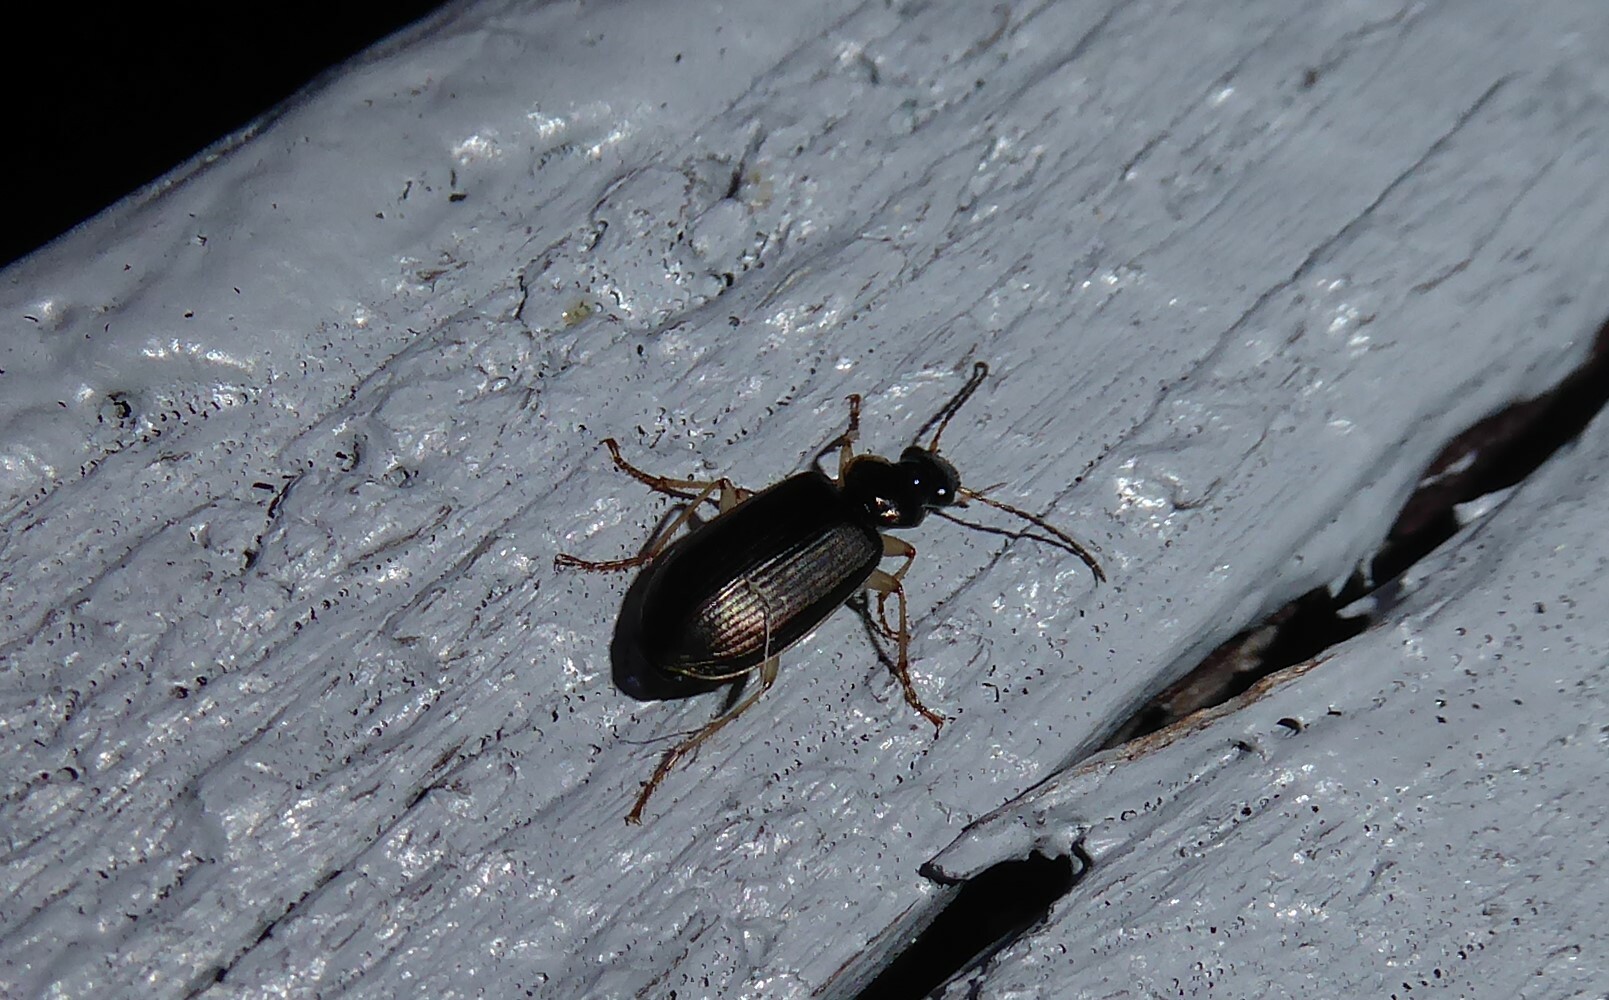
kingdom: Animalia
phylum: Arthropoda
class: Insecta
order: Coleoptera
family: Carabidae
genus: Notagonum
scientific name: Notagonum submetallicum
